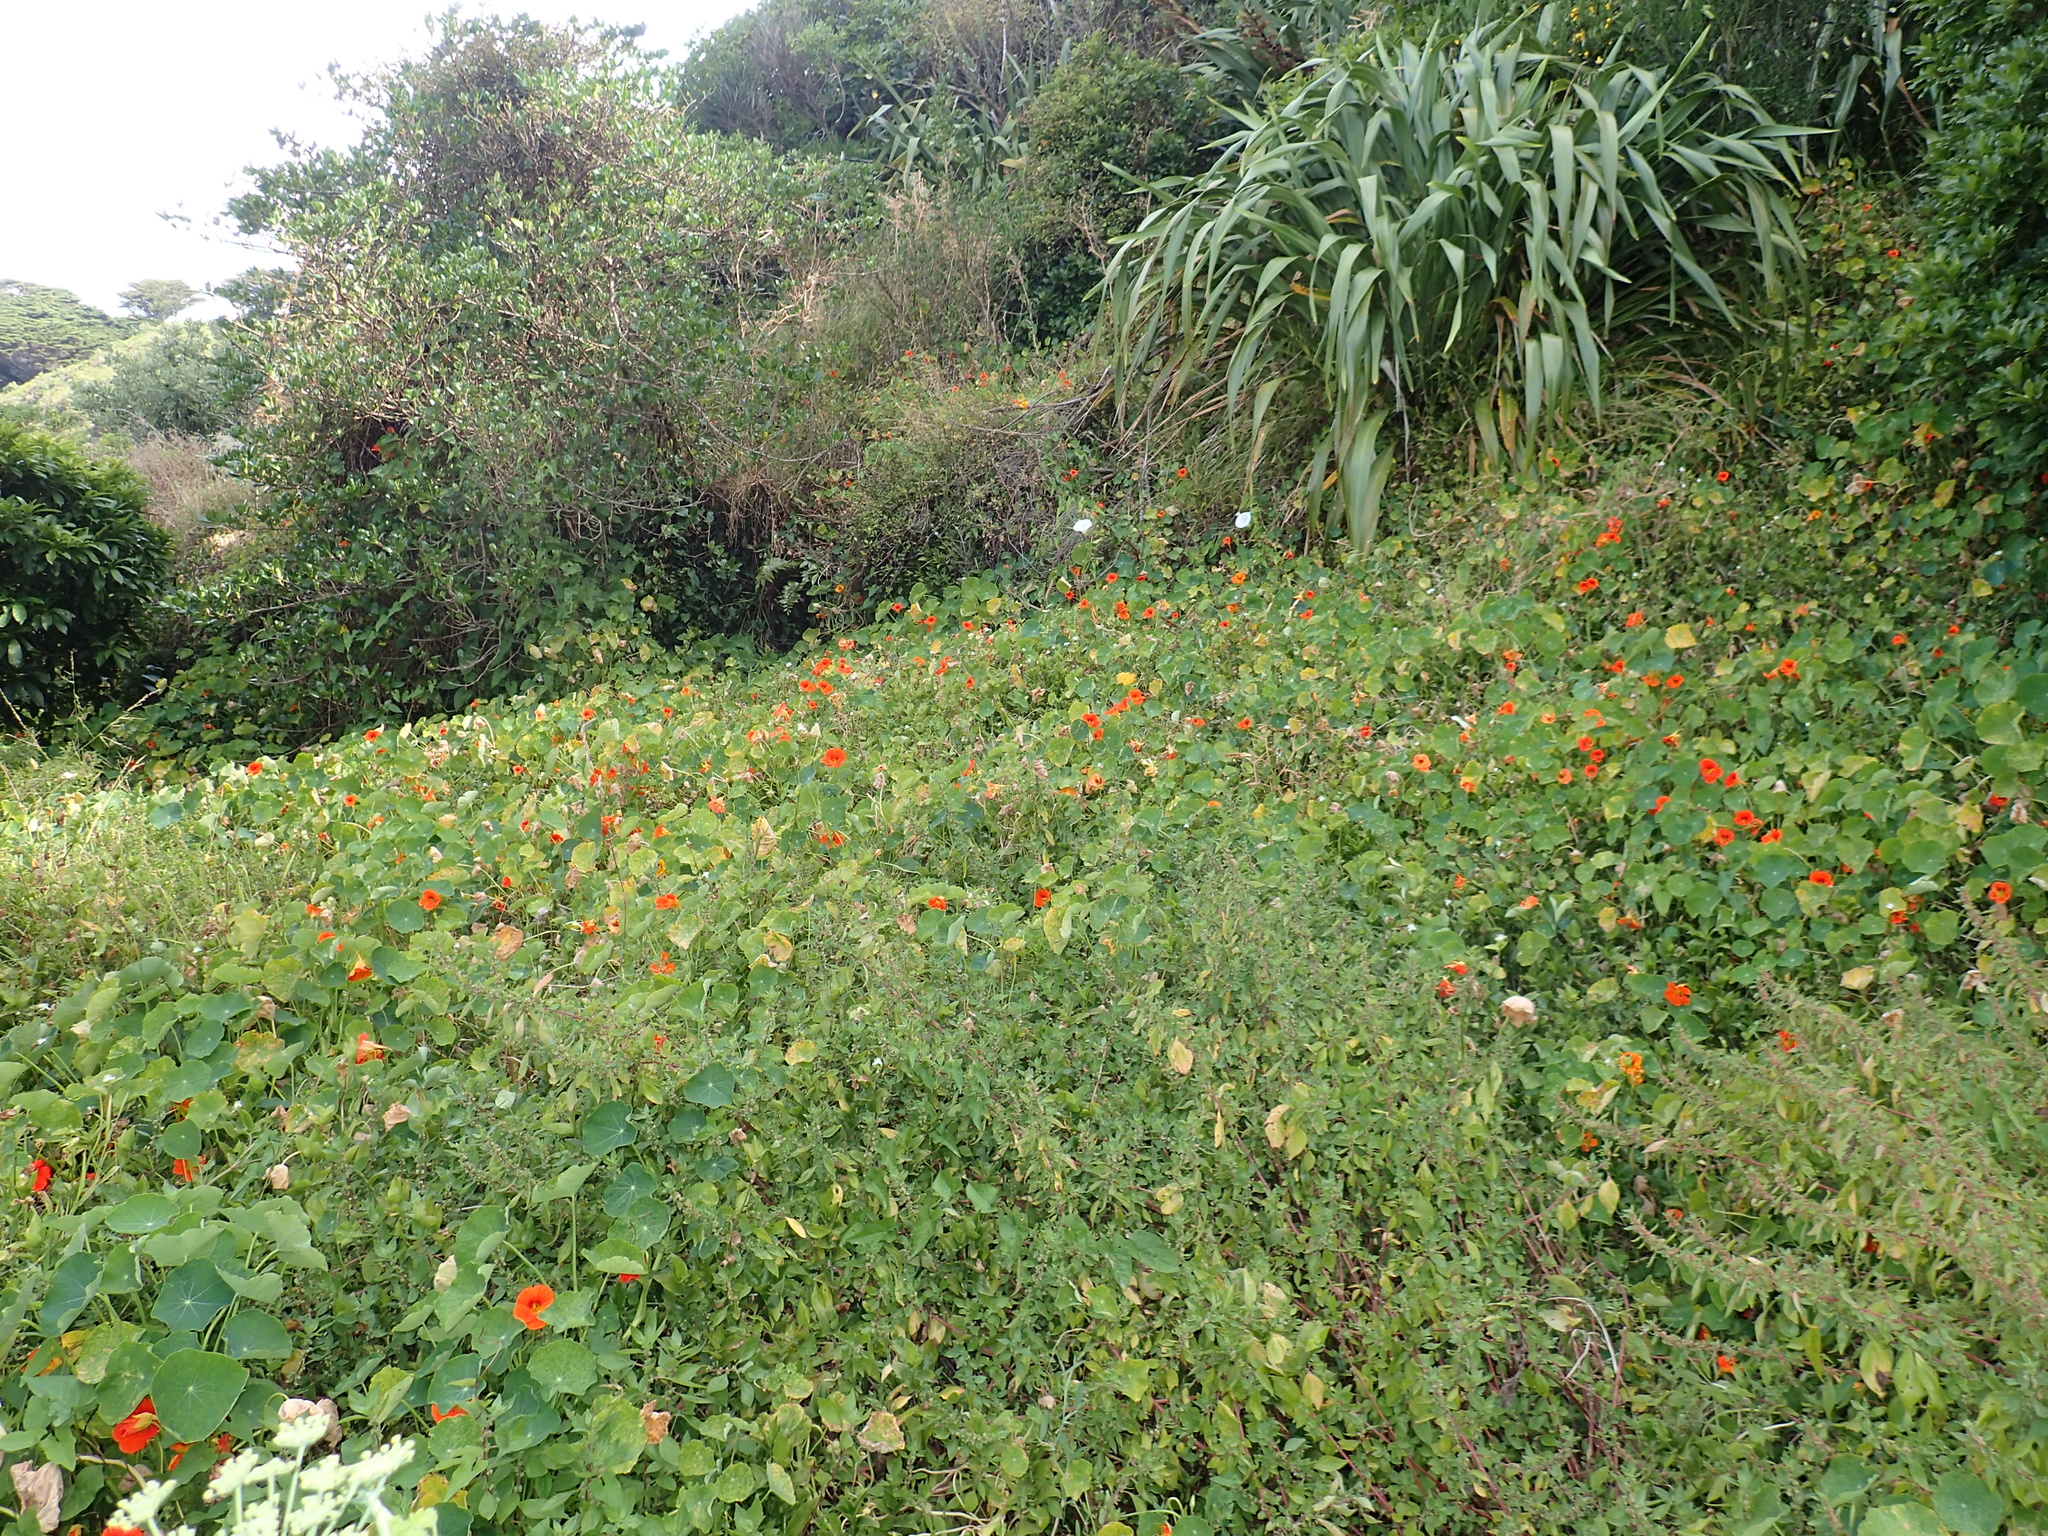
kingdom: Plantae
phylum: Tracheophyta
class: Magnoliopsida
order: Brassicales
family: Tropaeolaceae
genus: Tropaeolum
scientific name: Tropaeolum majus
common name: Nasturtium
